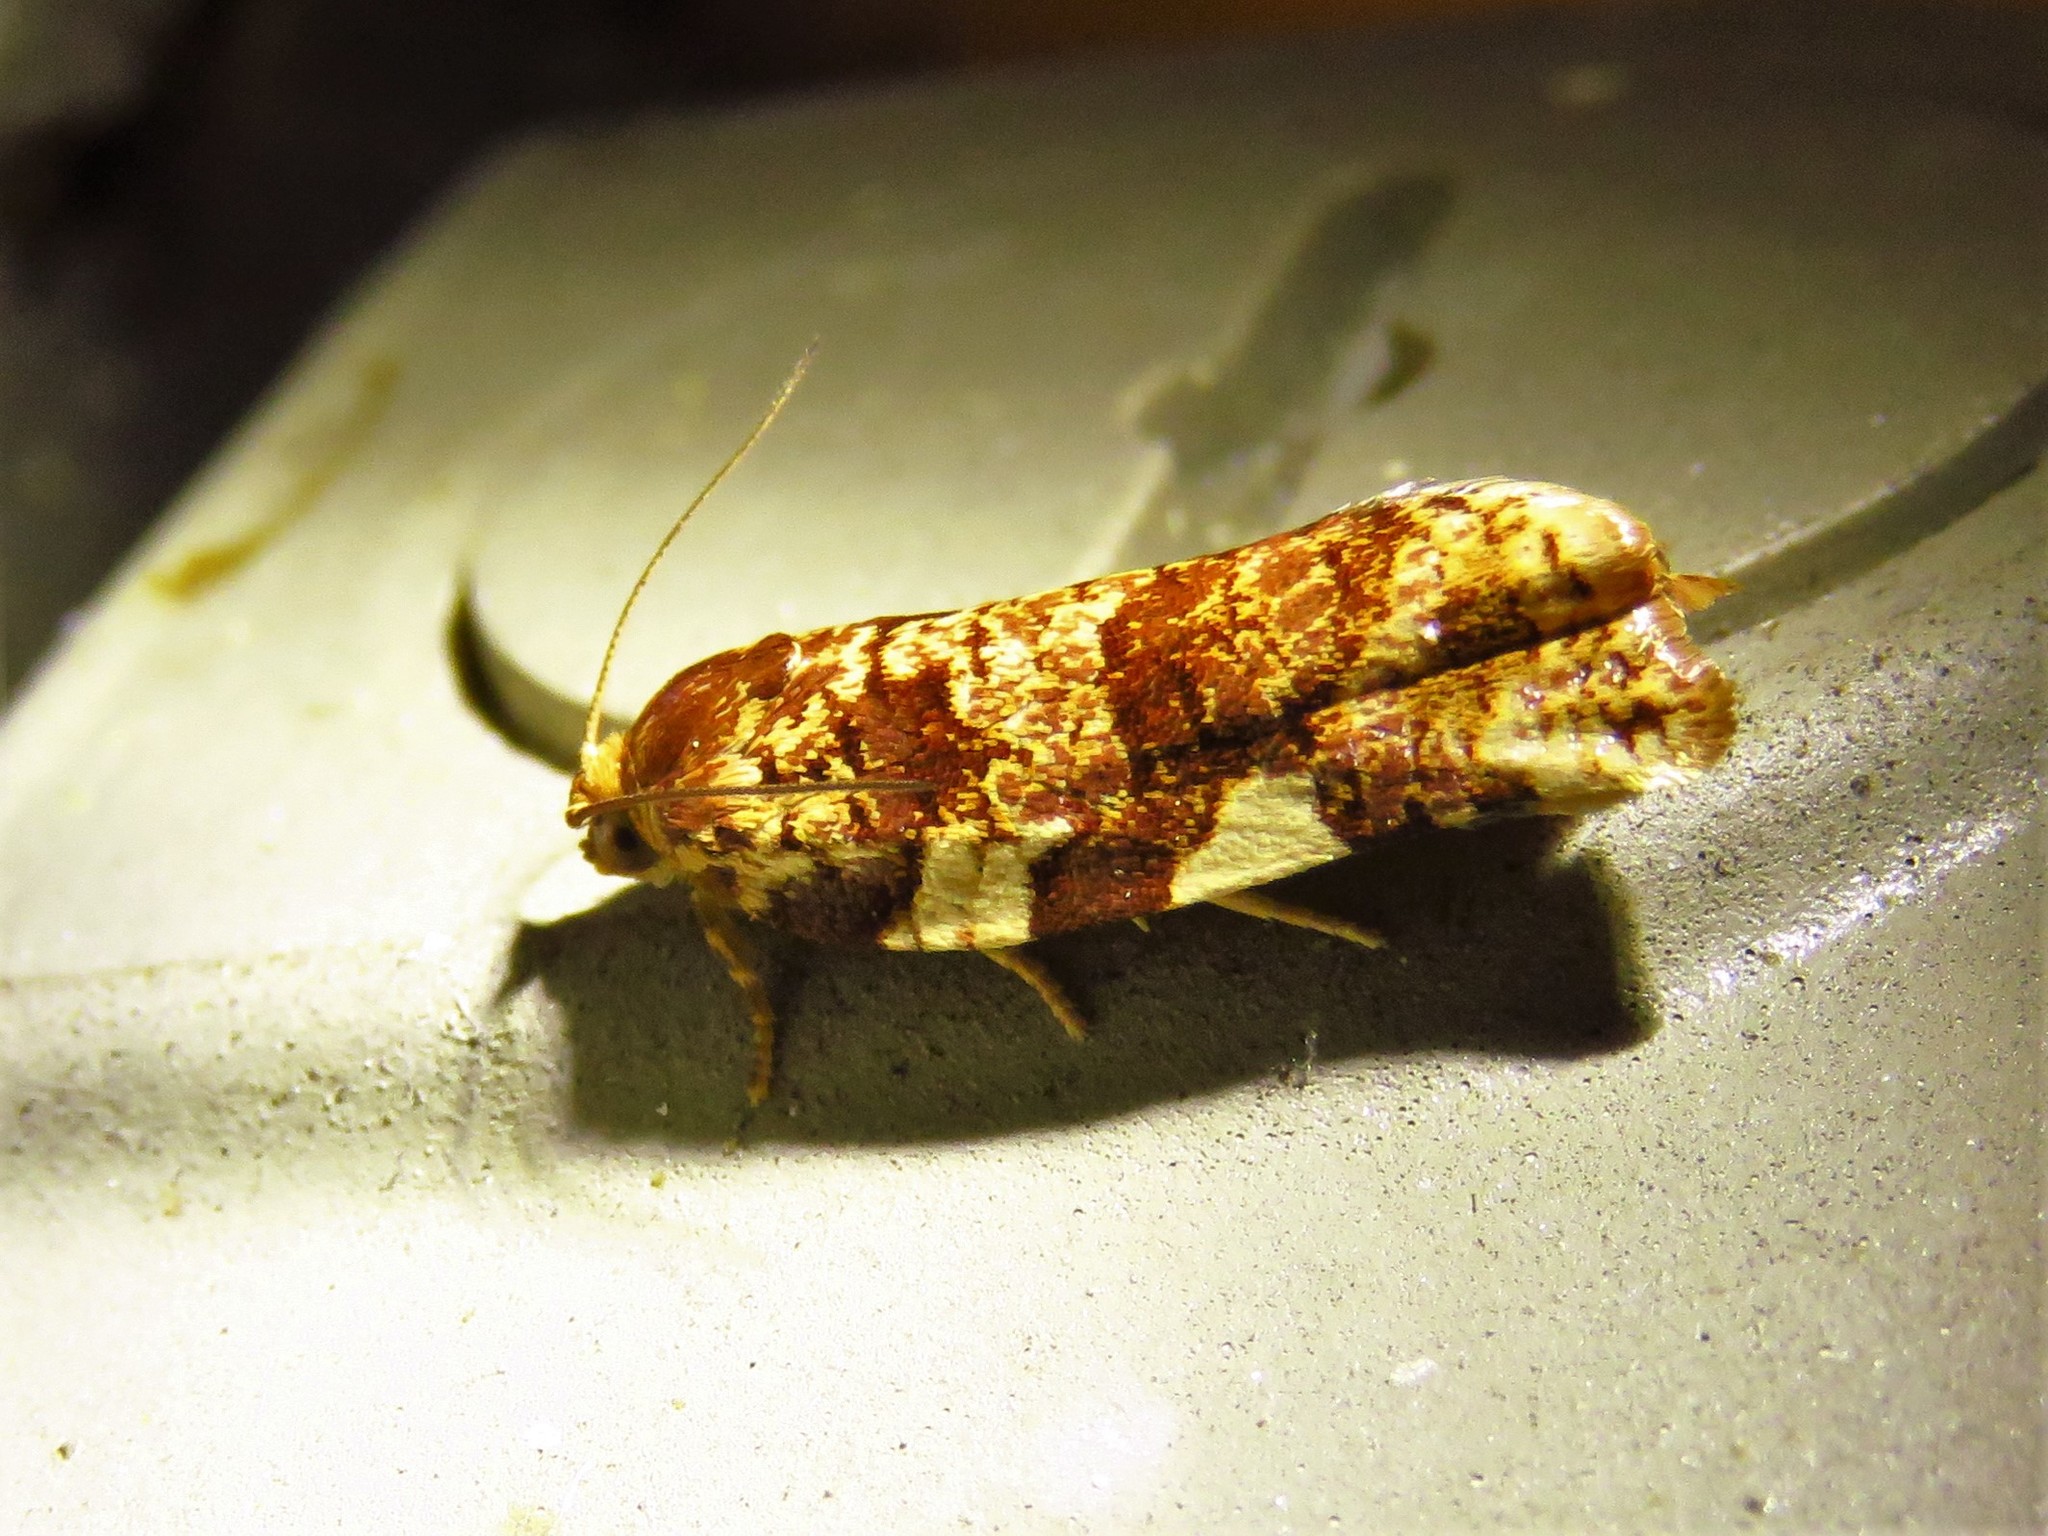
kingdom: Animalia
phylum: Arthropoda
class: Insecta
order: Lepidoptera
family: Tortricidae
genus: Archips
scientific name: Archips argyrospila
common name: Fruit-tree leafroller moth
